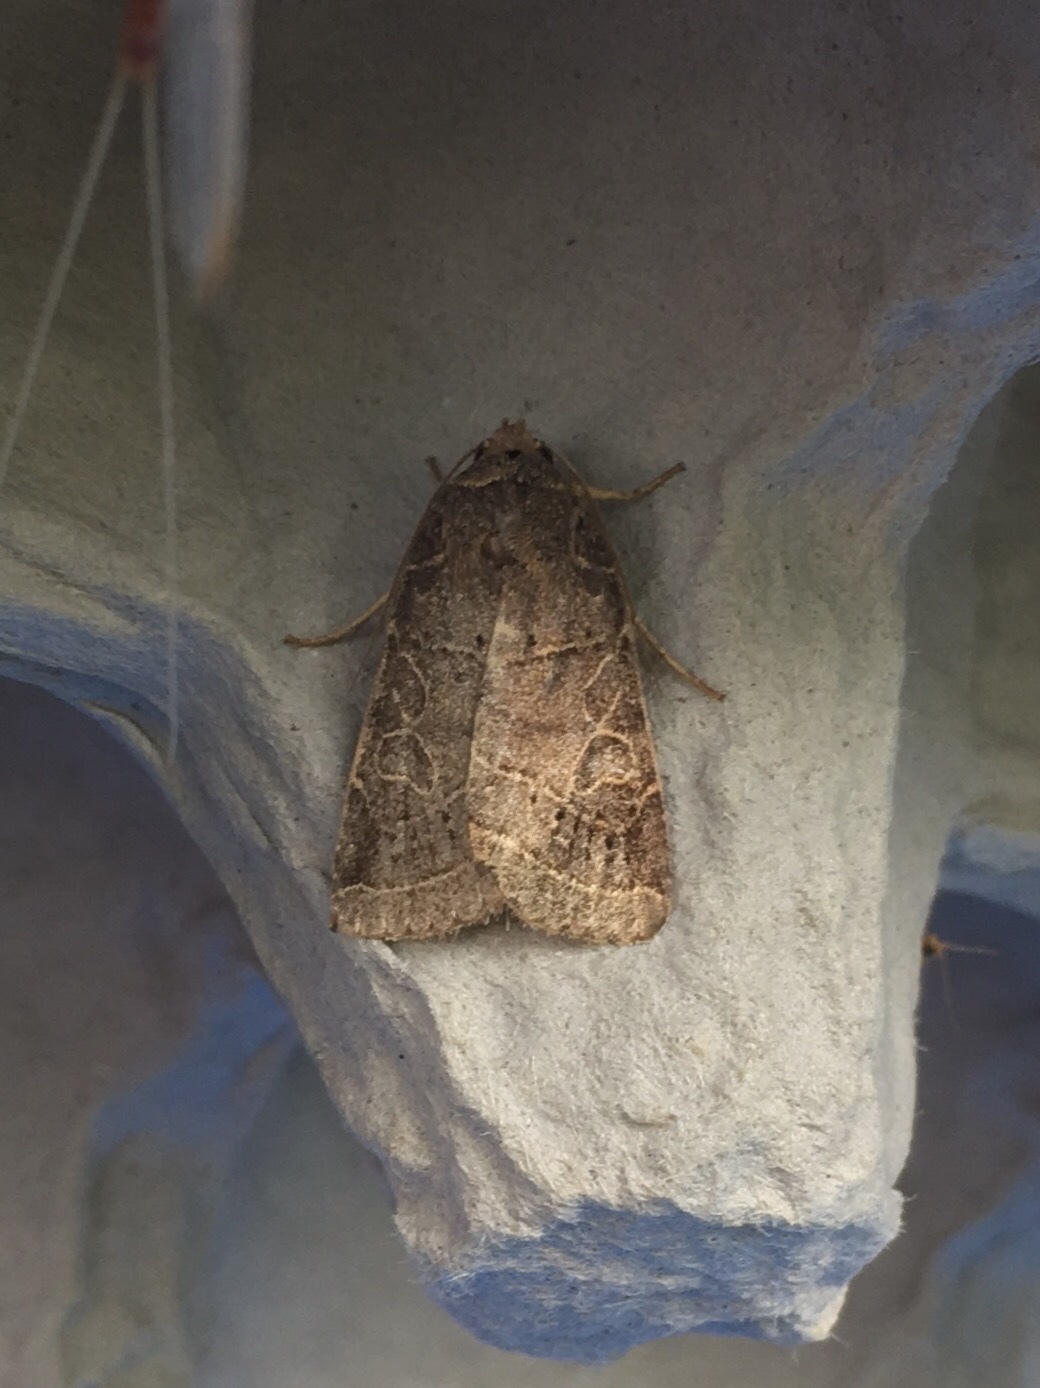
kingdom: Animalia
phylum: Arthropoda
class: Insecta
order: Lepidoptera
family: Noctuidae
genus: Orthodes
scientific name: Orthodes majuscula
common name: Rustic quaker
